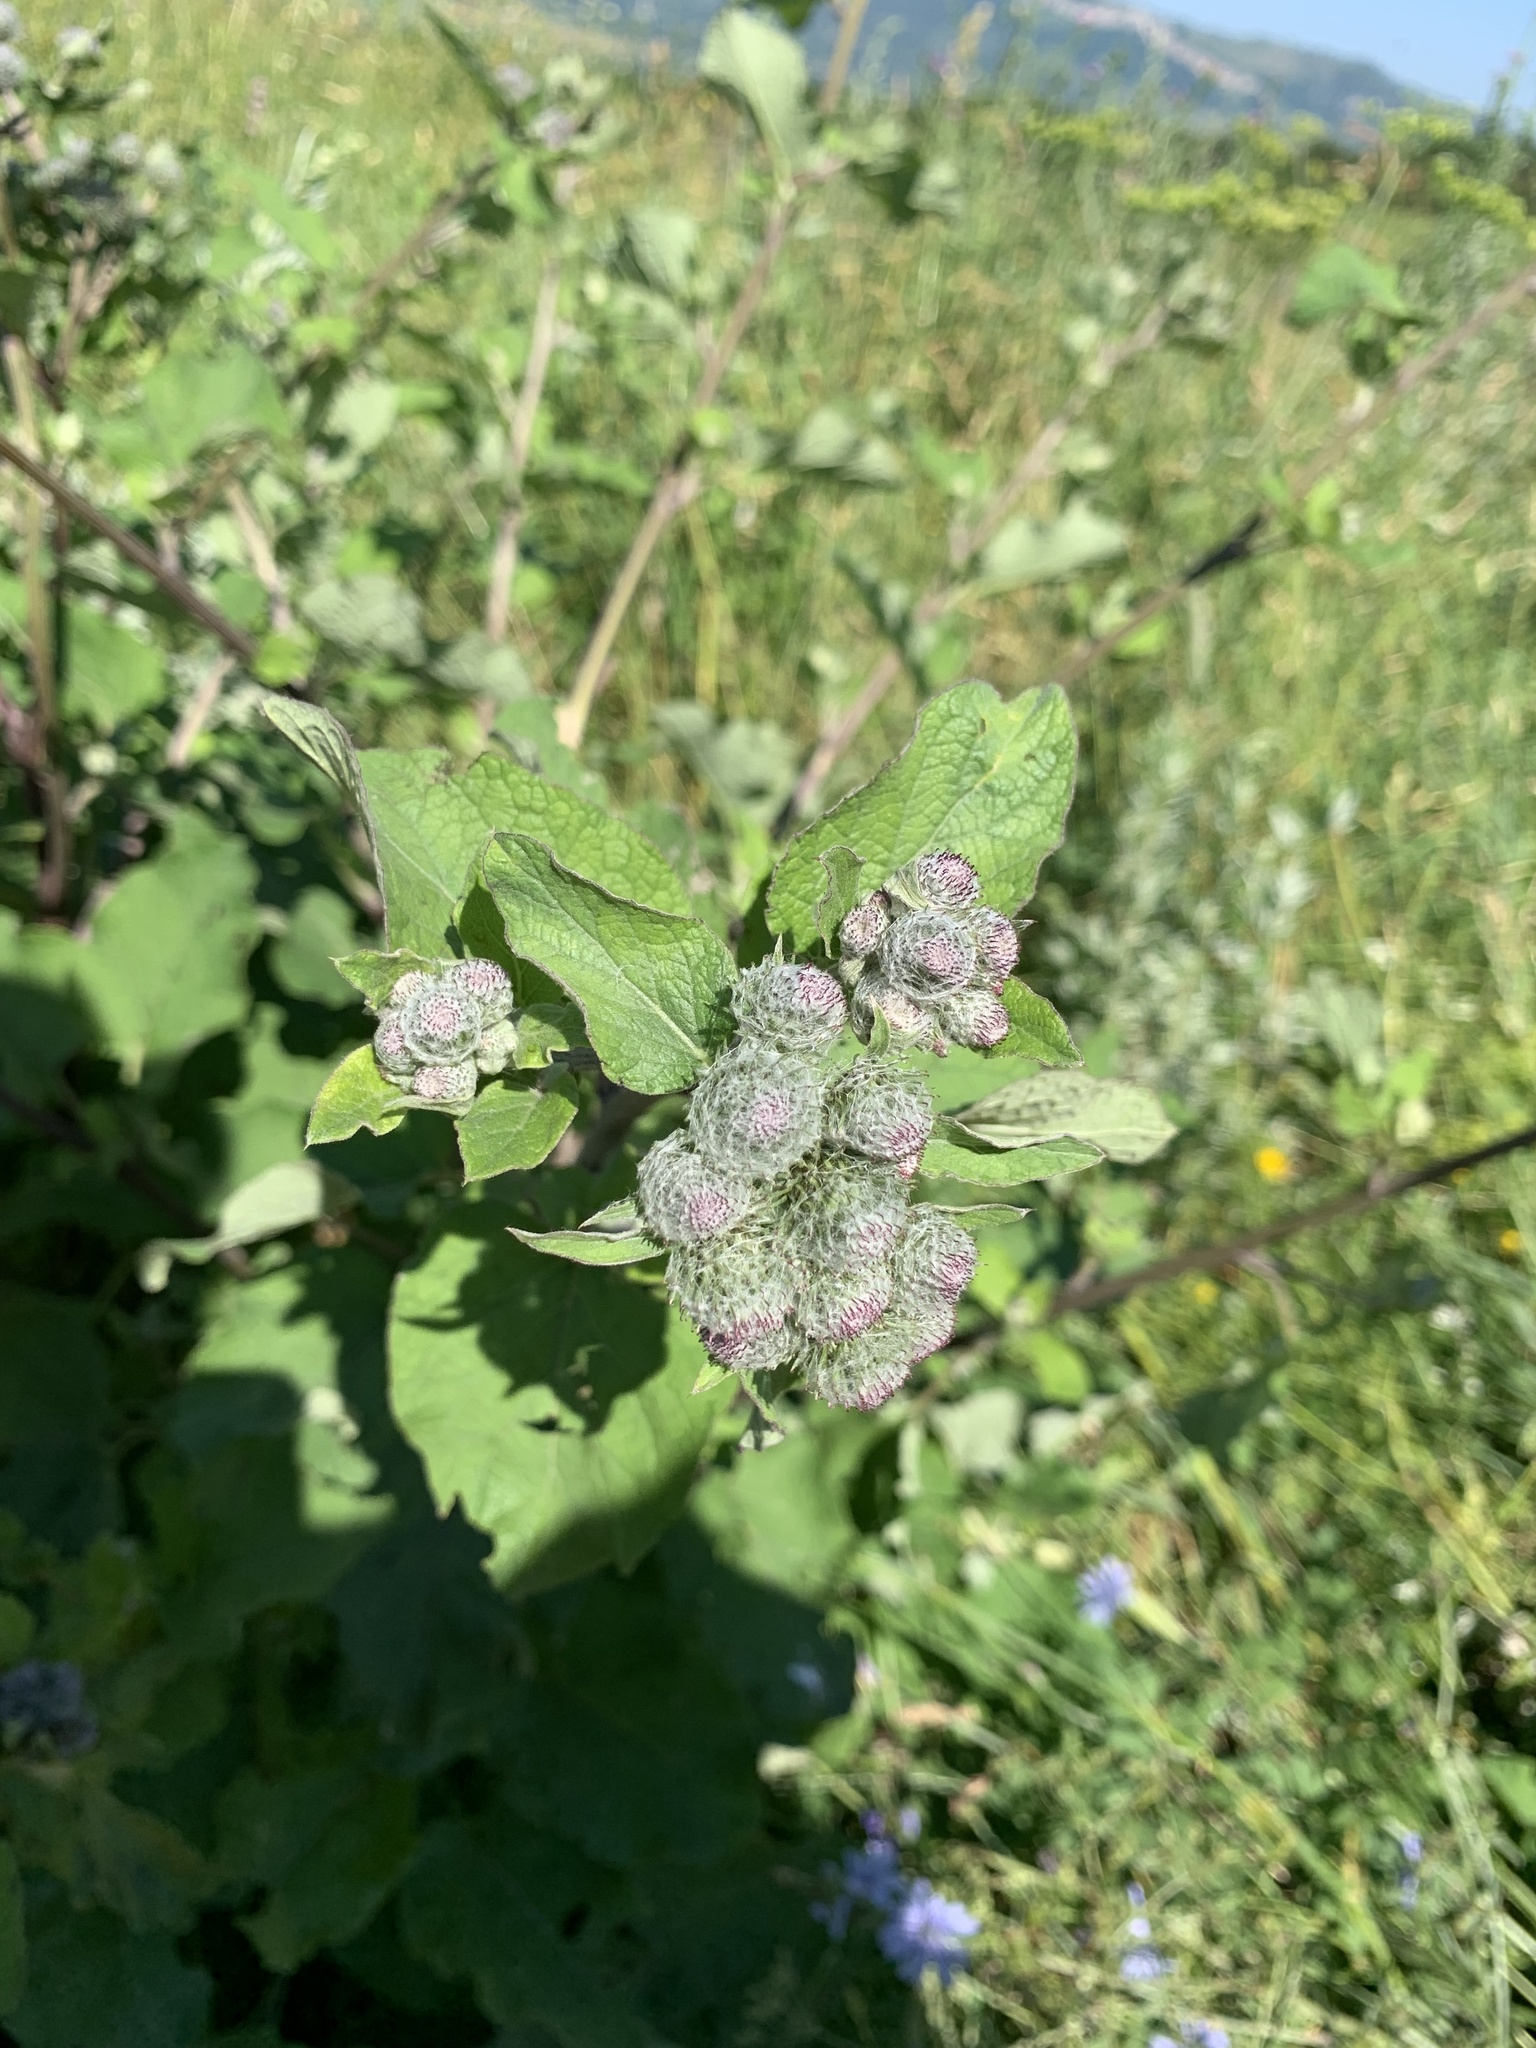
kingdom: Plantae
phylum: Tracheophyta
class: Magnoliopsida
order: Asterales
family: Asteraceae
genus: Arctium
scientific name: Arctium tomentosum
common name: Woolly burdock
